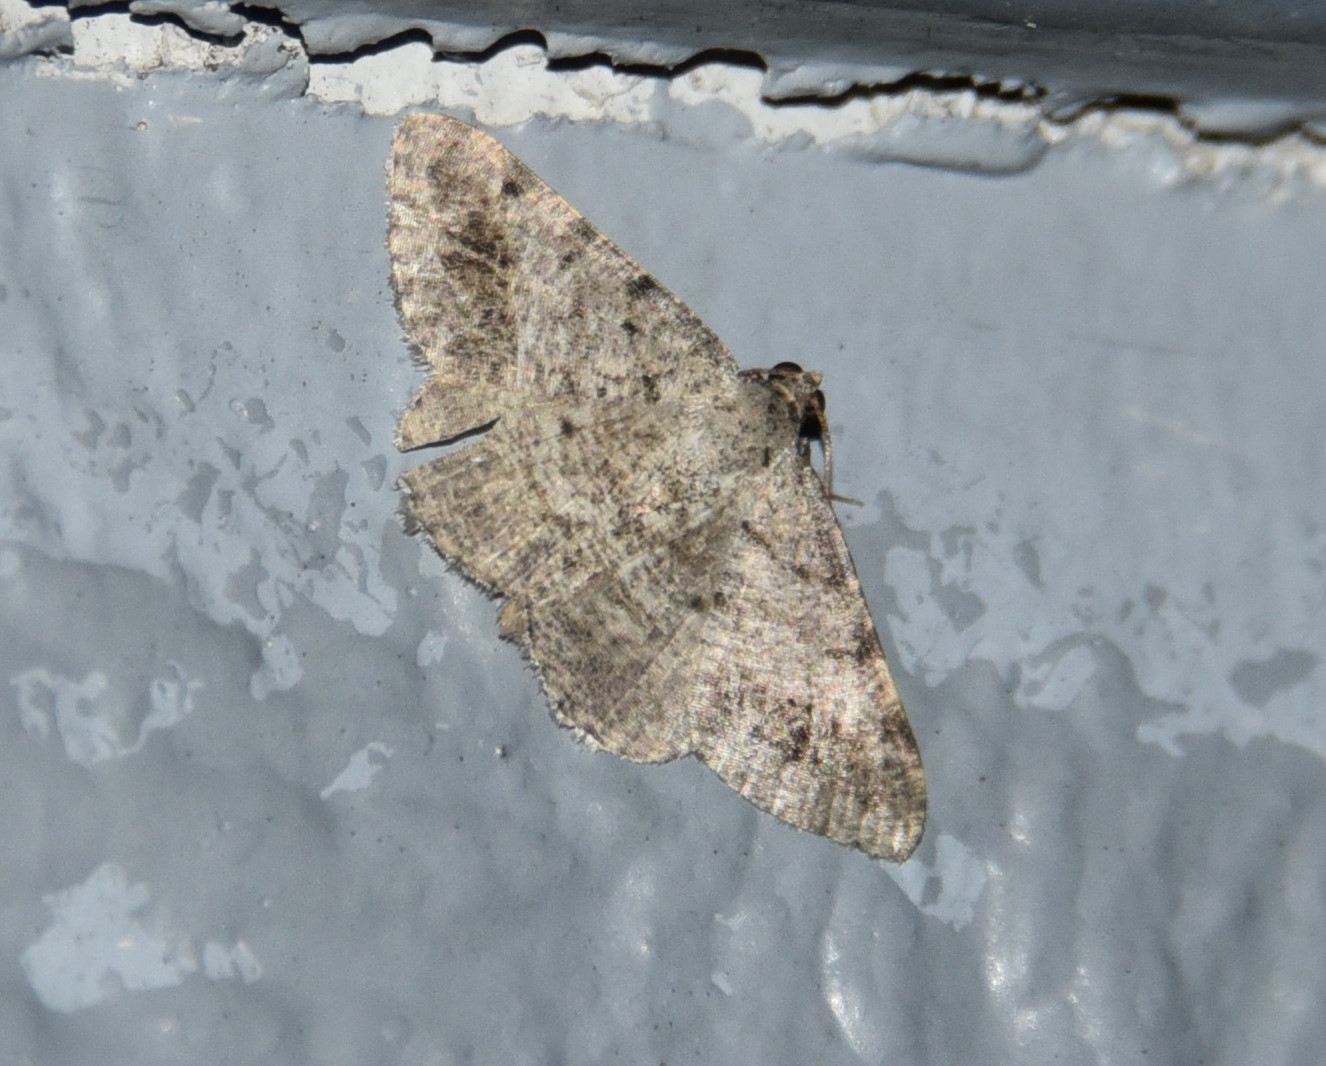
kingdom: Animalia
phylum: Arthropoda
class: Insecta
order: Lepidoptera
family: Geometridae
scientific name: Geometridae
